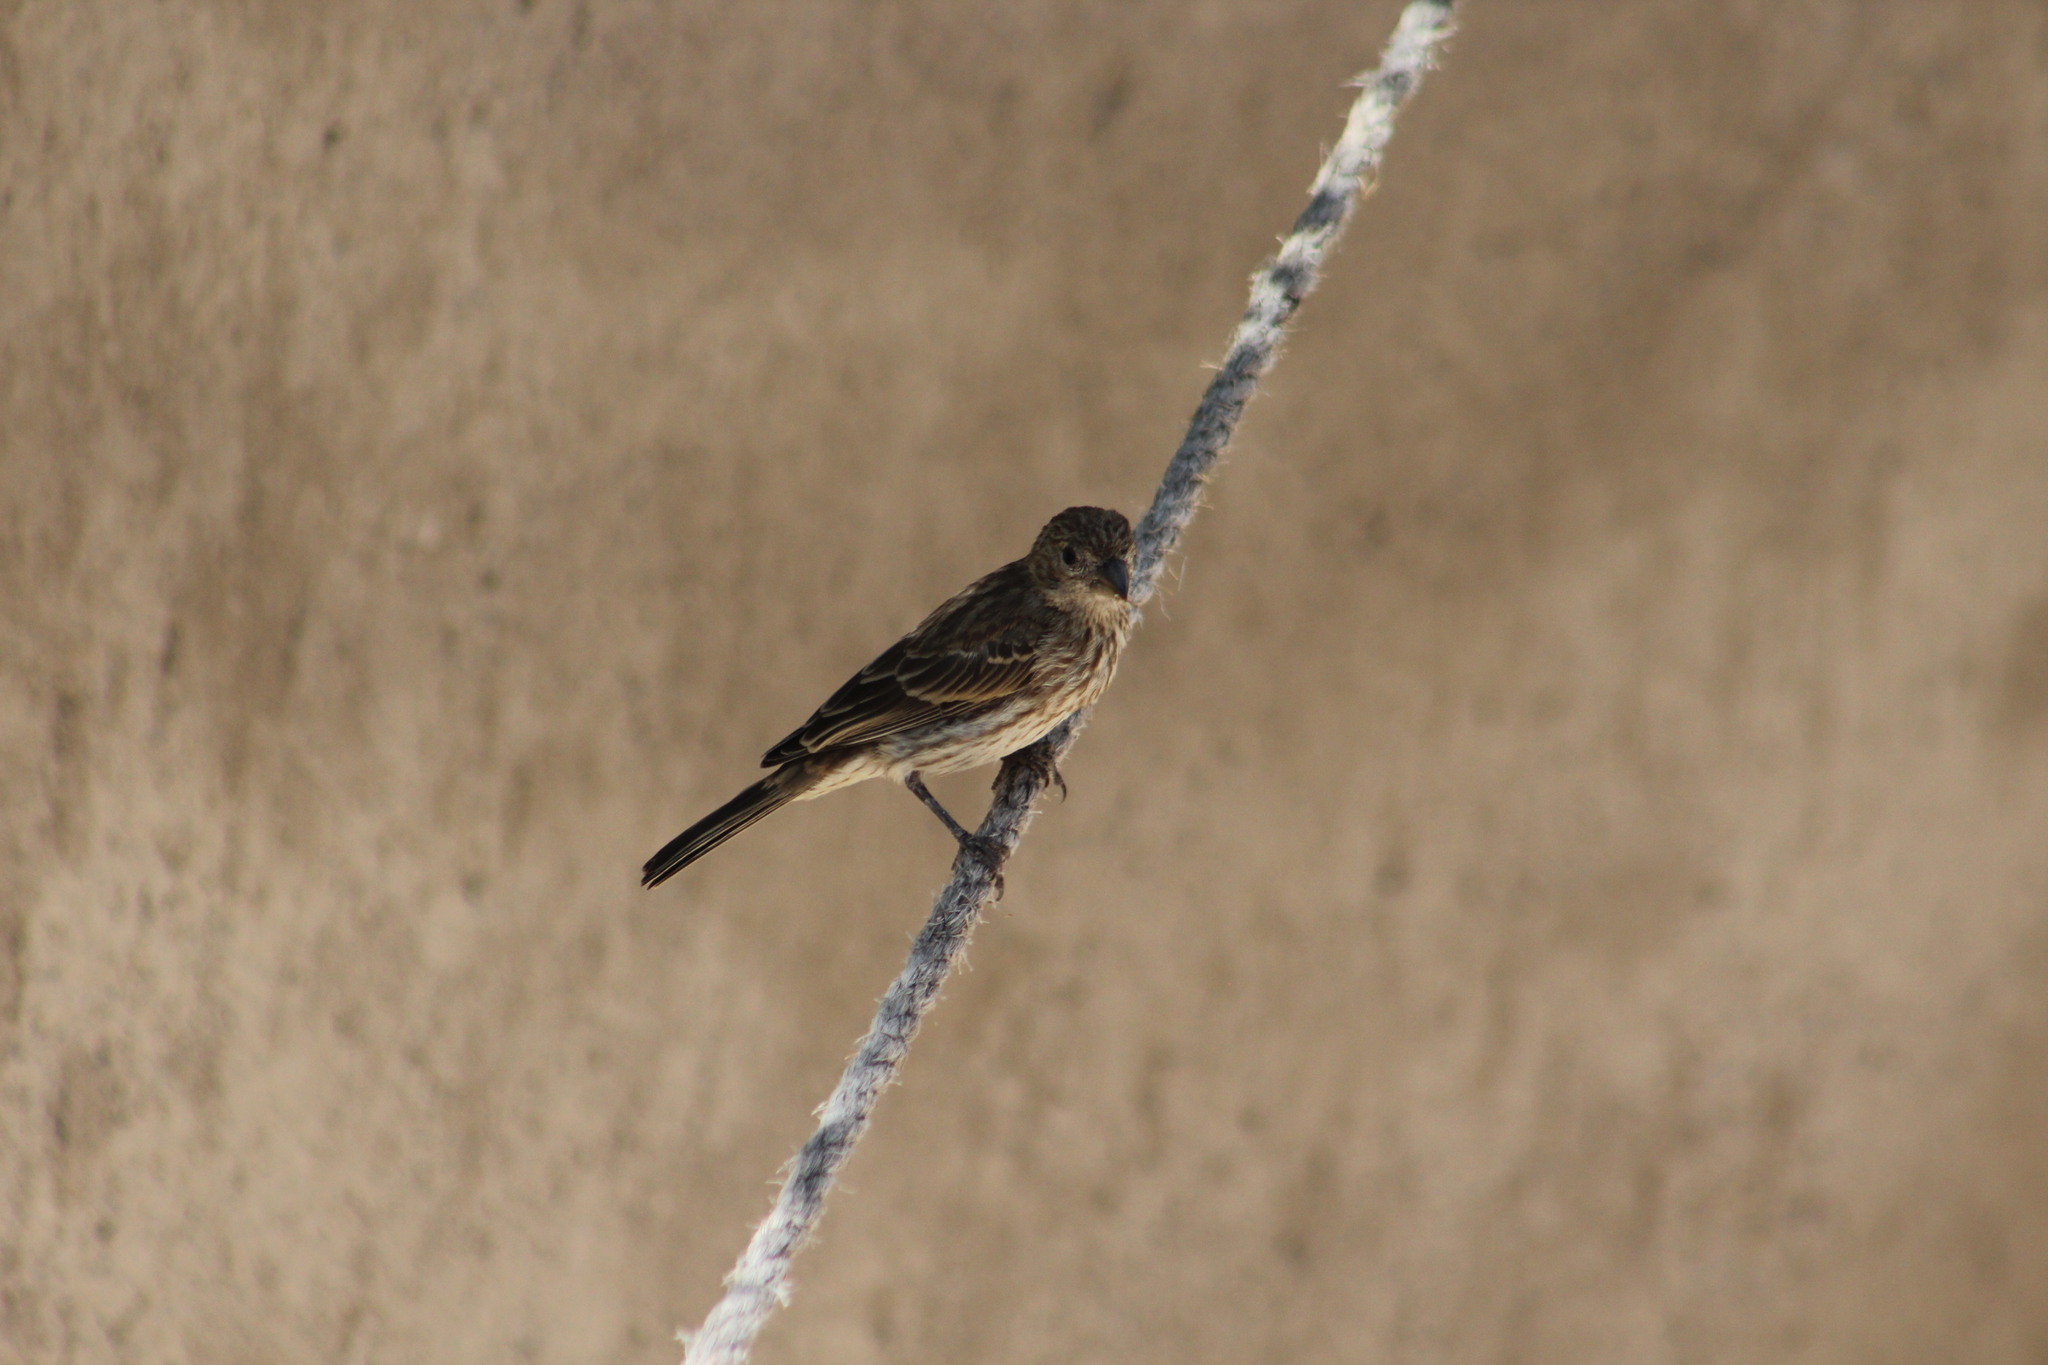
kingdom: Animalia
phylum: Chordata
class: Aves
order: Passeriformes
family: Fringillidae
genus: Haemorhous
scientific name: Haemorhous mexicanus
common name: House finch
